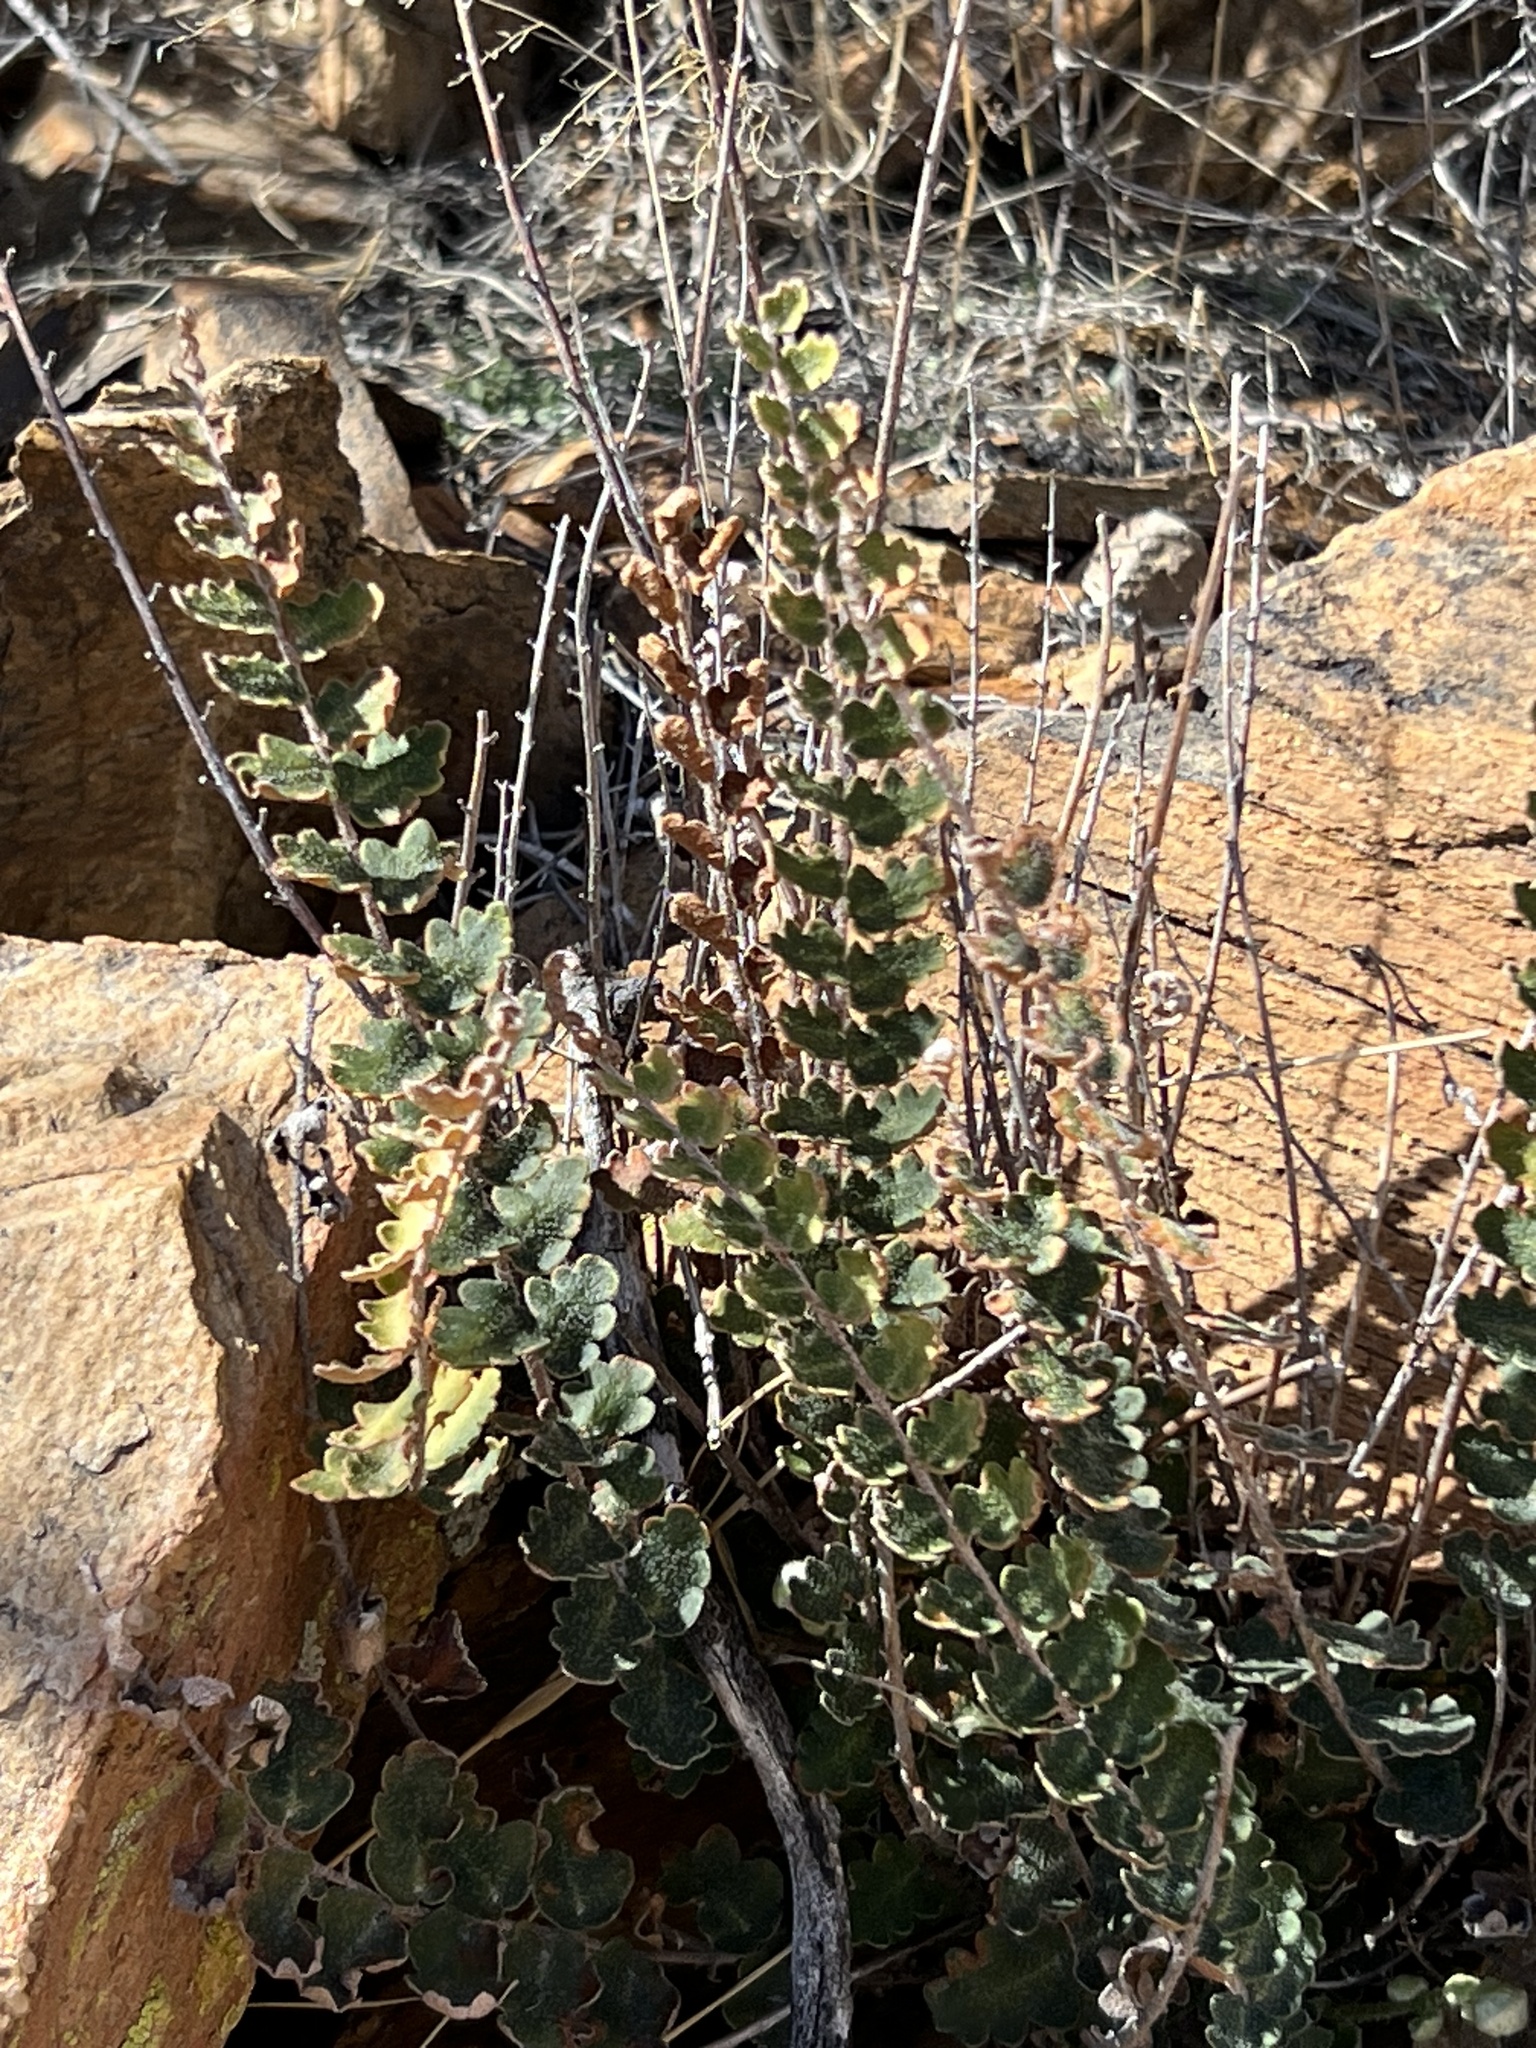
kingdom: Plantae
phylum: Tracheophyta
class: Polypodiopsida
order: Polypodiales
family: Pteridaceae
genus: Astrolepis
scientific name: Astrolepis sinuata
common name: Wavy scaly cloakfern
